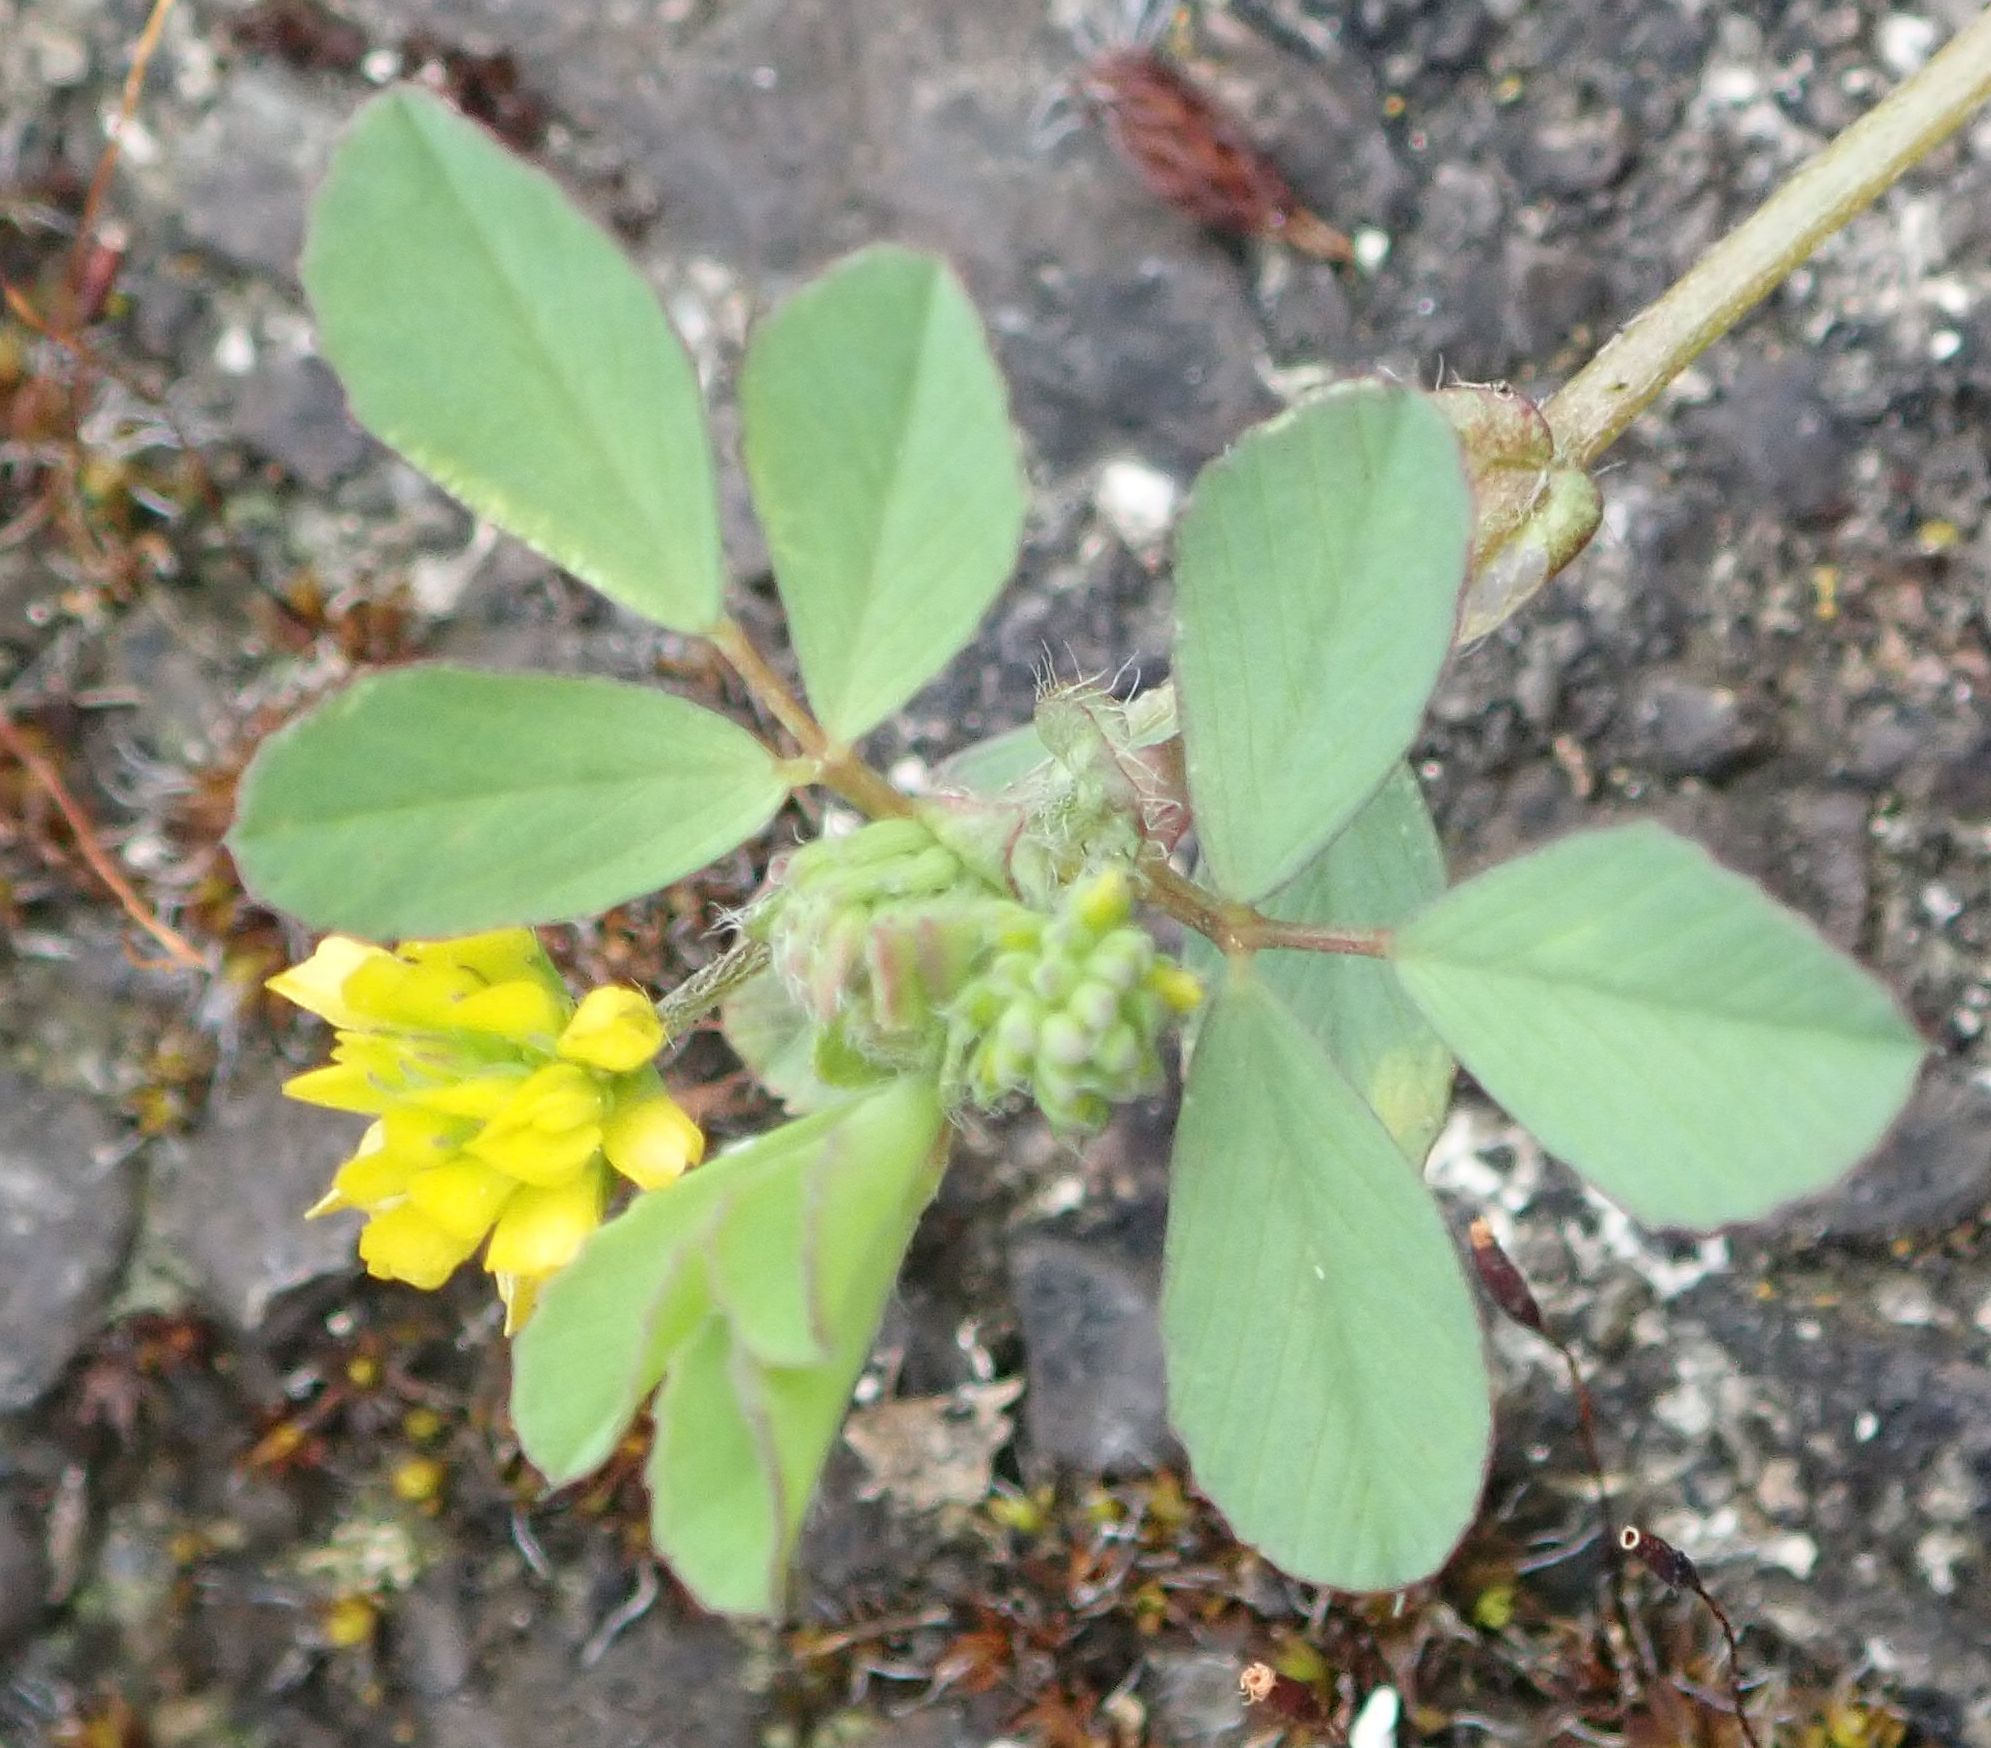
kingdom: Plantae
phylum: Tracheophyta
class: Magnoliopsida
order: Fabales
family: Fabaceae
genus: Trifolium
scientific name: Trifolium dubium
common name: Suckling clover
